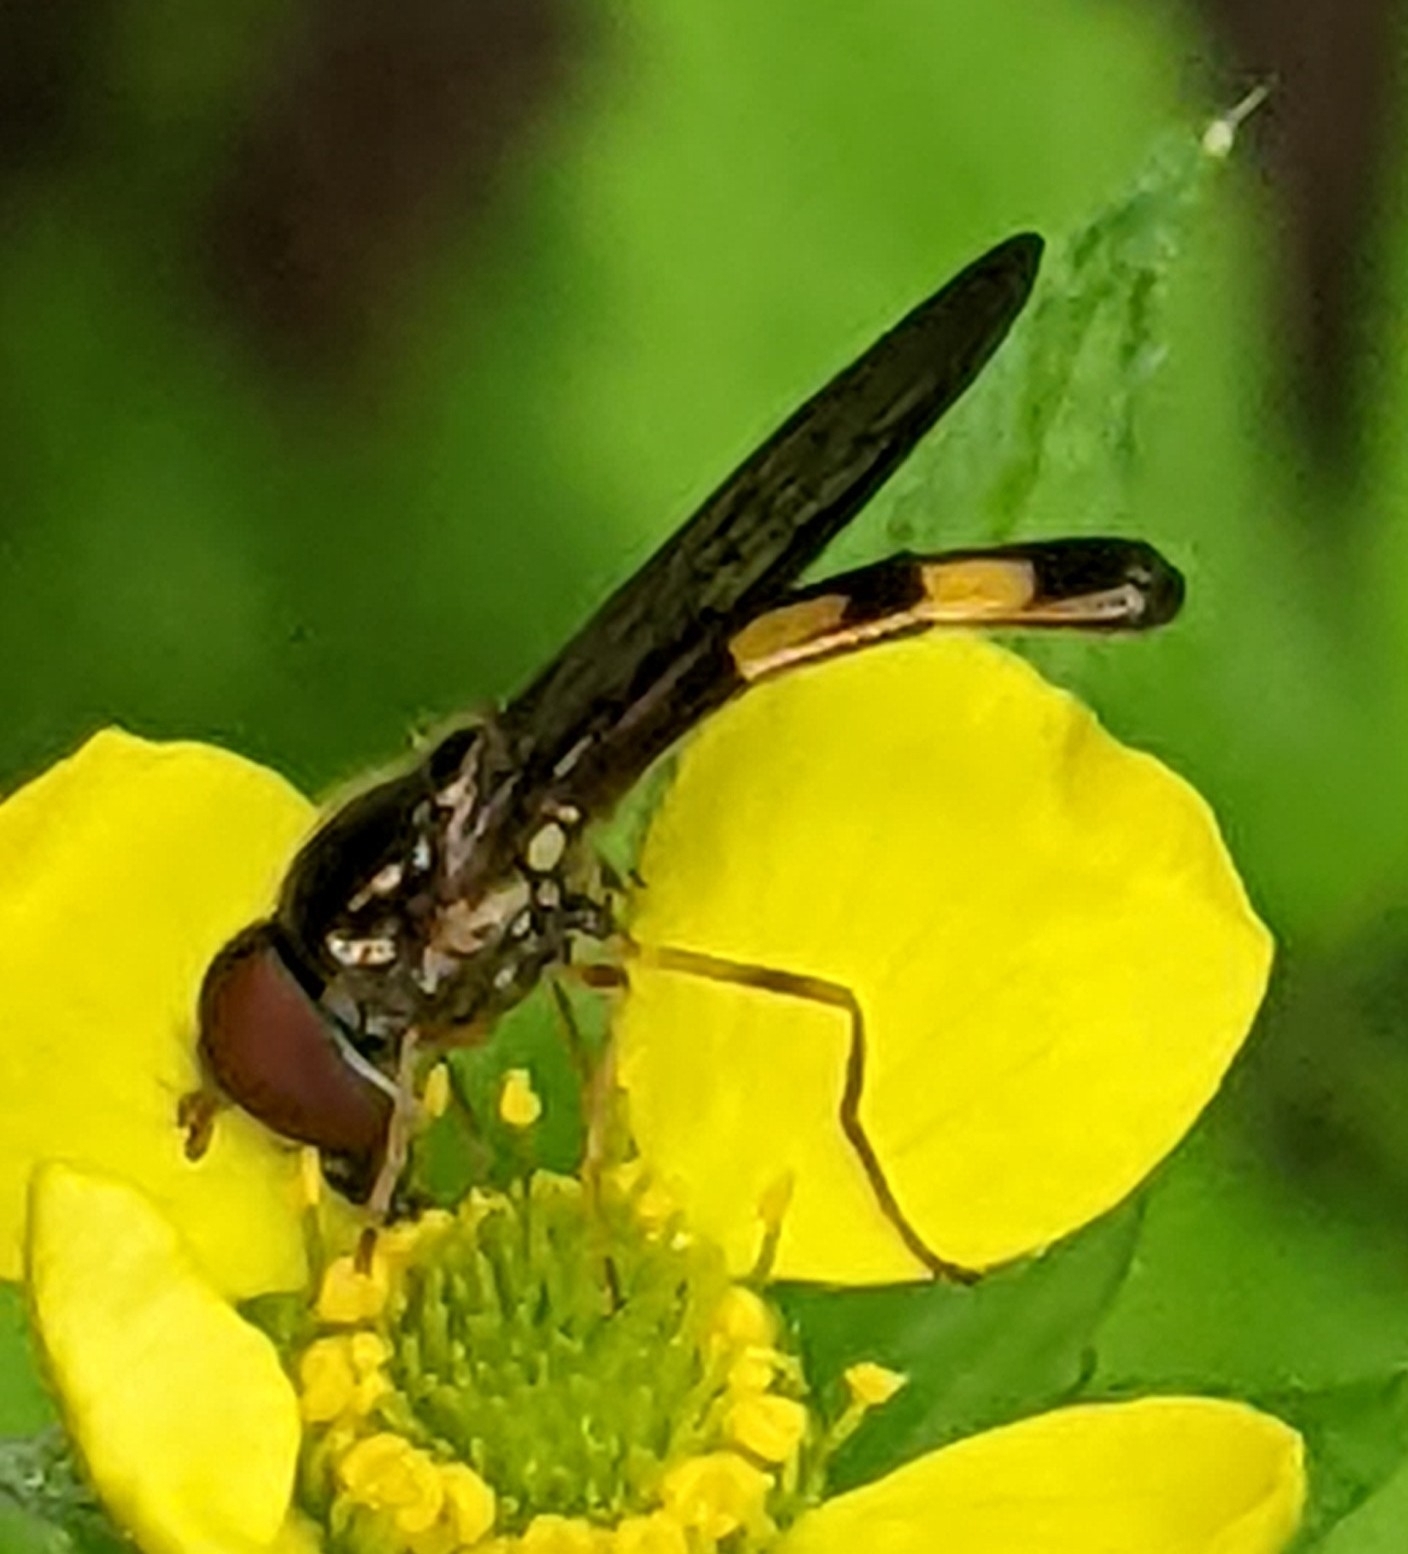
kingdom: Animalia
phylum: Arthropoda
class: Insecta
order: Diptera
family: Syrphidae
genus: Melanostoma
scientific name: Melanostoma mellina
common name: Hover fly
